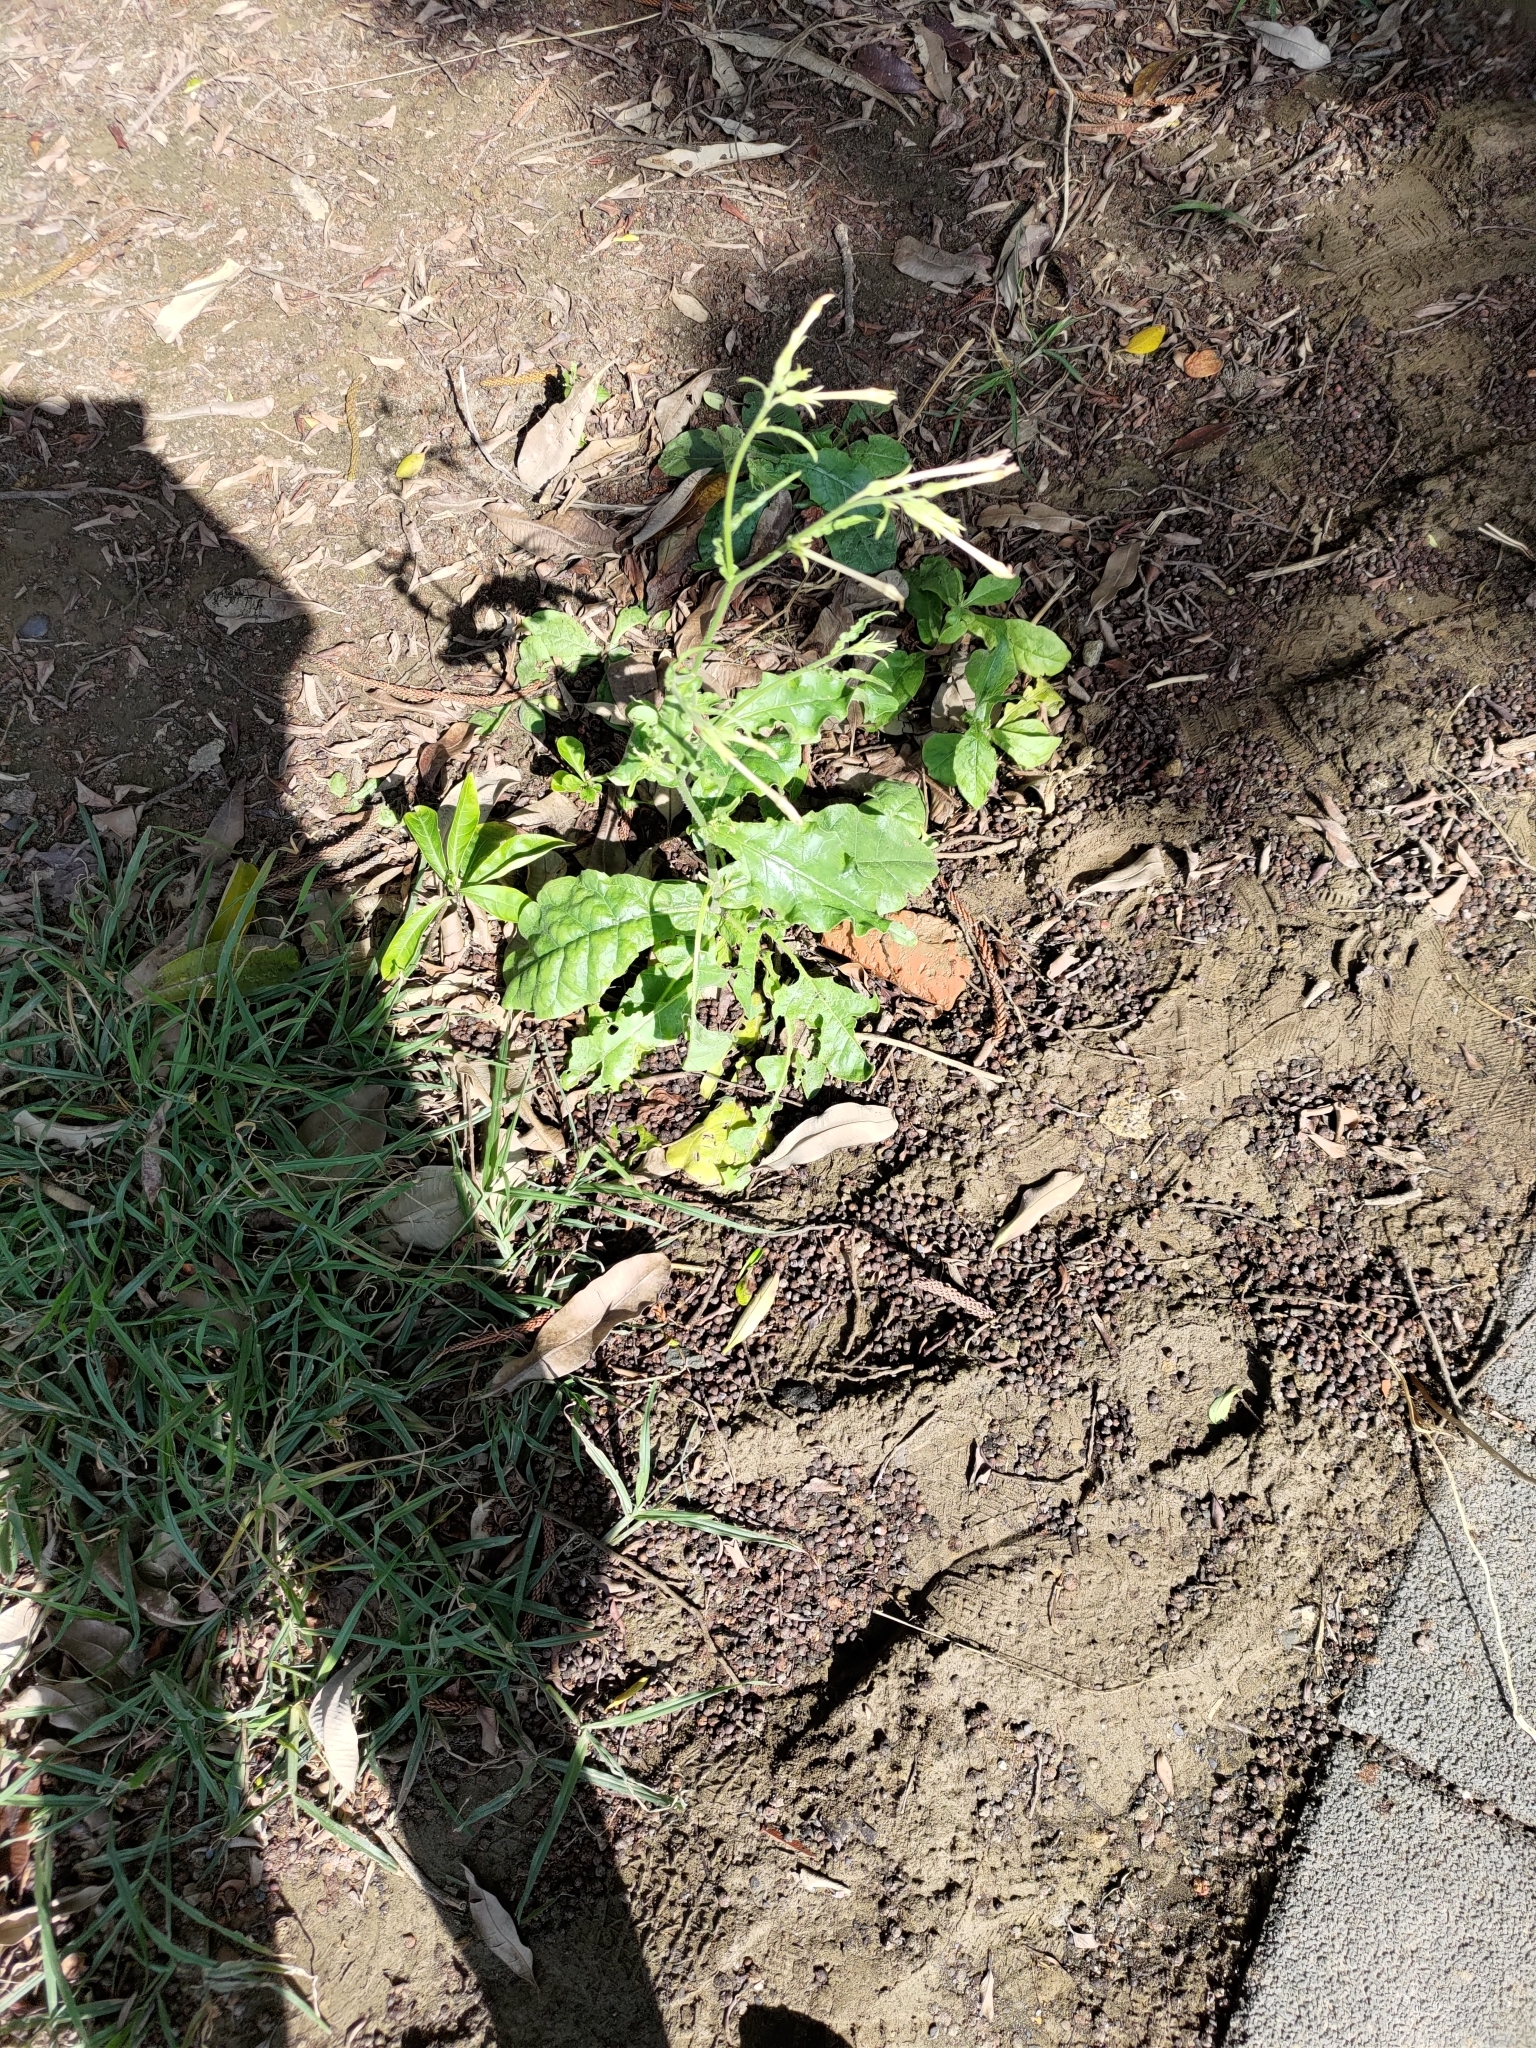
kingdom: Plantae
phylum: Tracheophyta
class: Magnoliopsida
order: Solanales
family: Solanaceae
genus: Nicotiana
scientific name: Nicotiana plumbaginifolia
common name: Tex-mex tobacco
